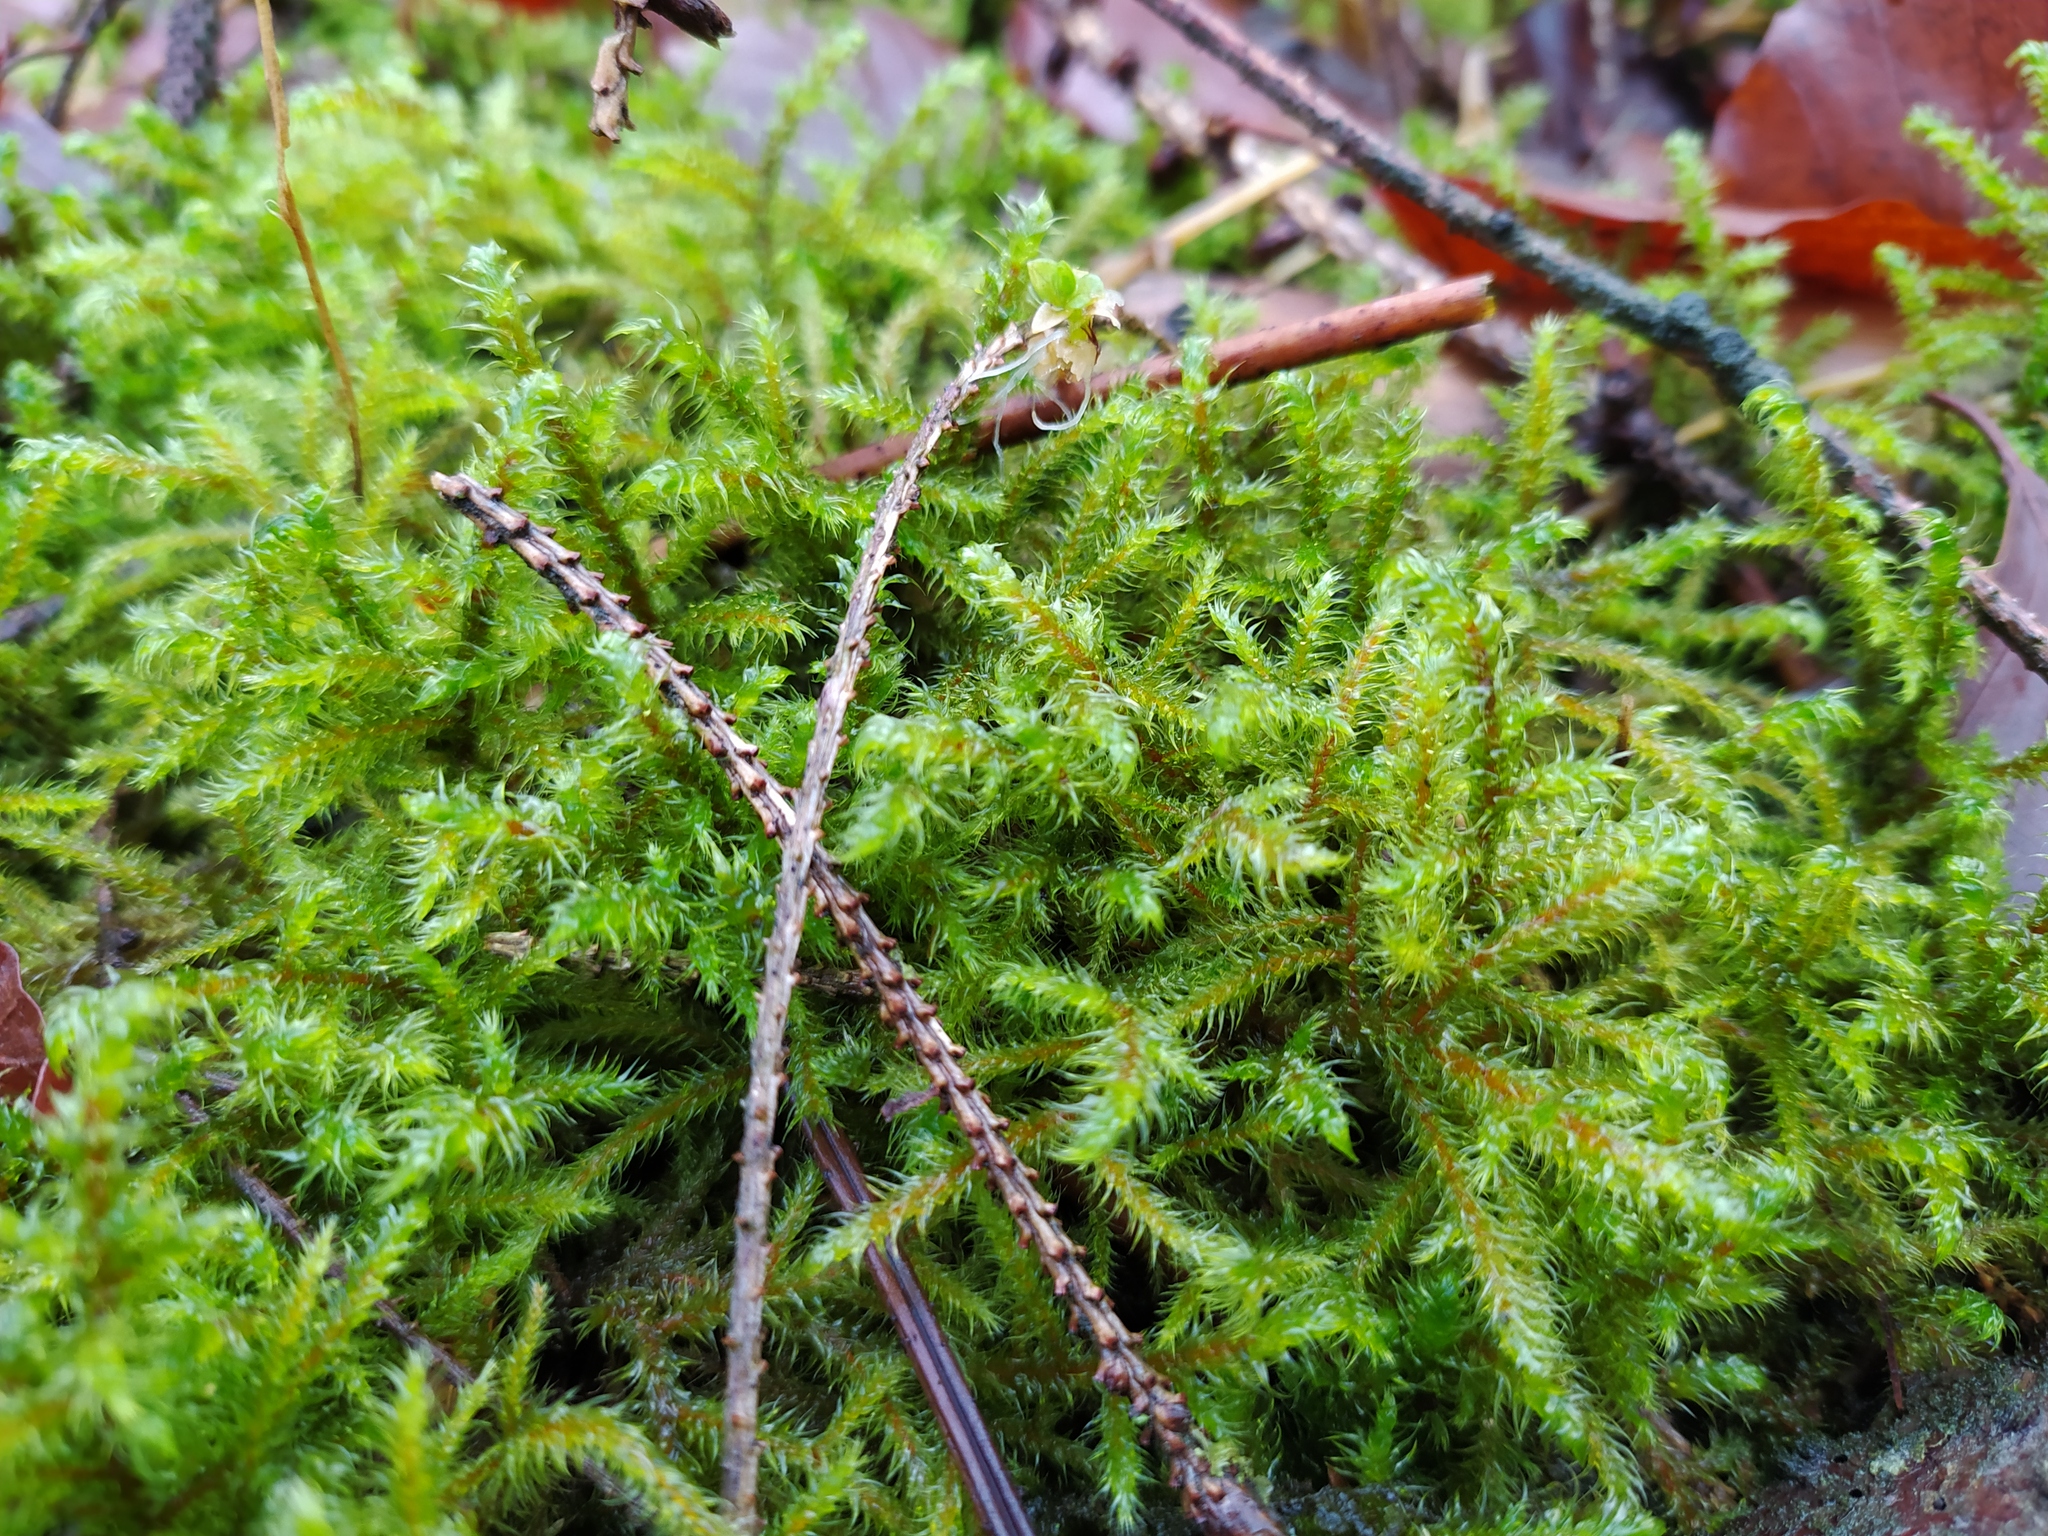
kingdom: Plantae
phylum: Bryophyta
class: Bryopsida
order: Hypnales
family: Hylocomiaceae
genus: Rhytidiadelphus
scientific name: Rhytidiadelphus loreus
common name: Lanky moss
